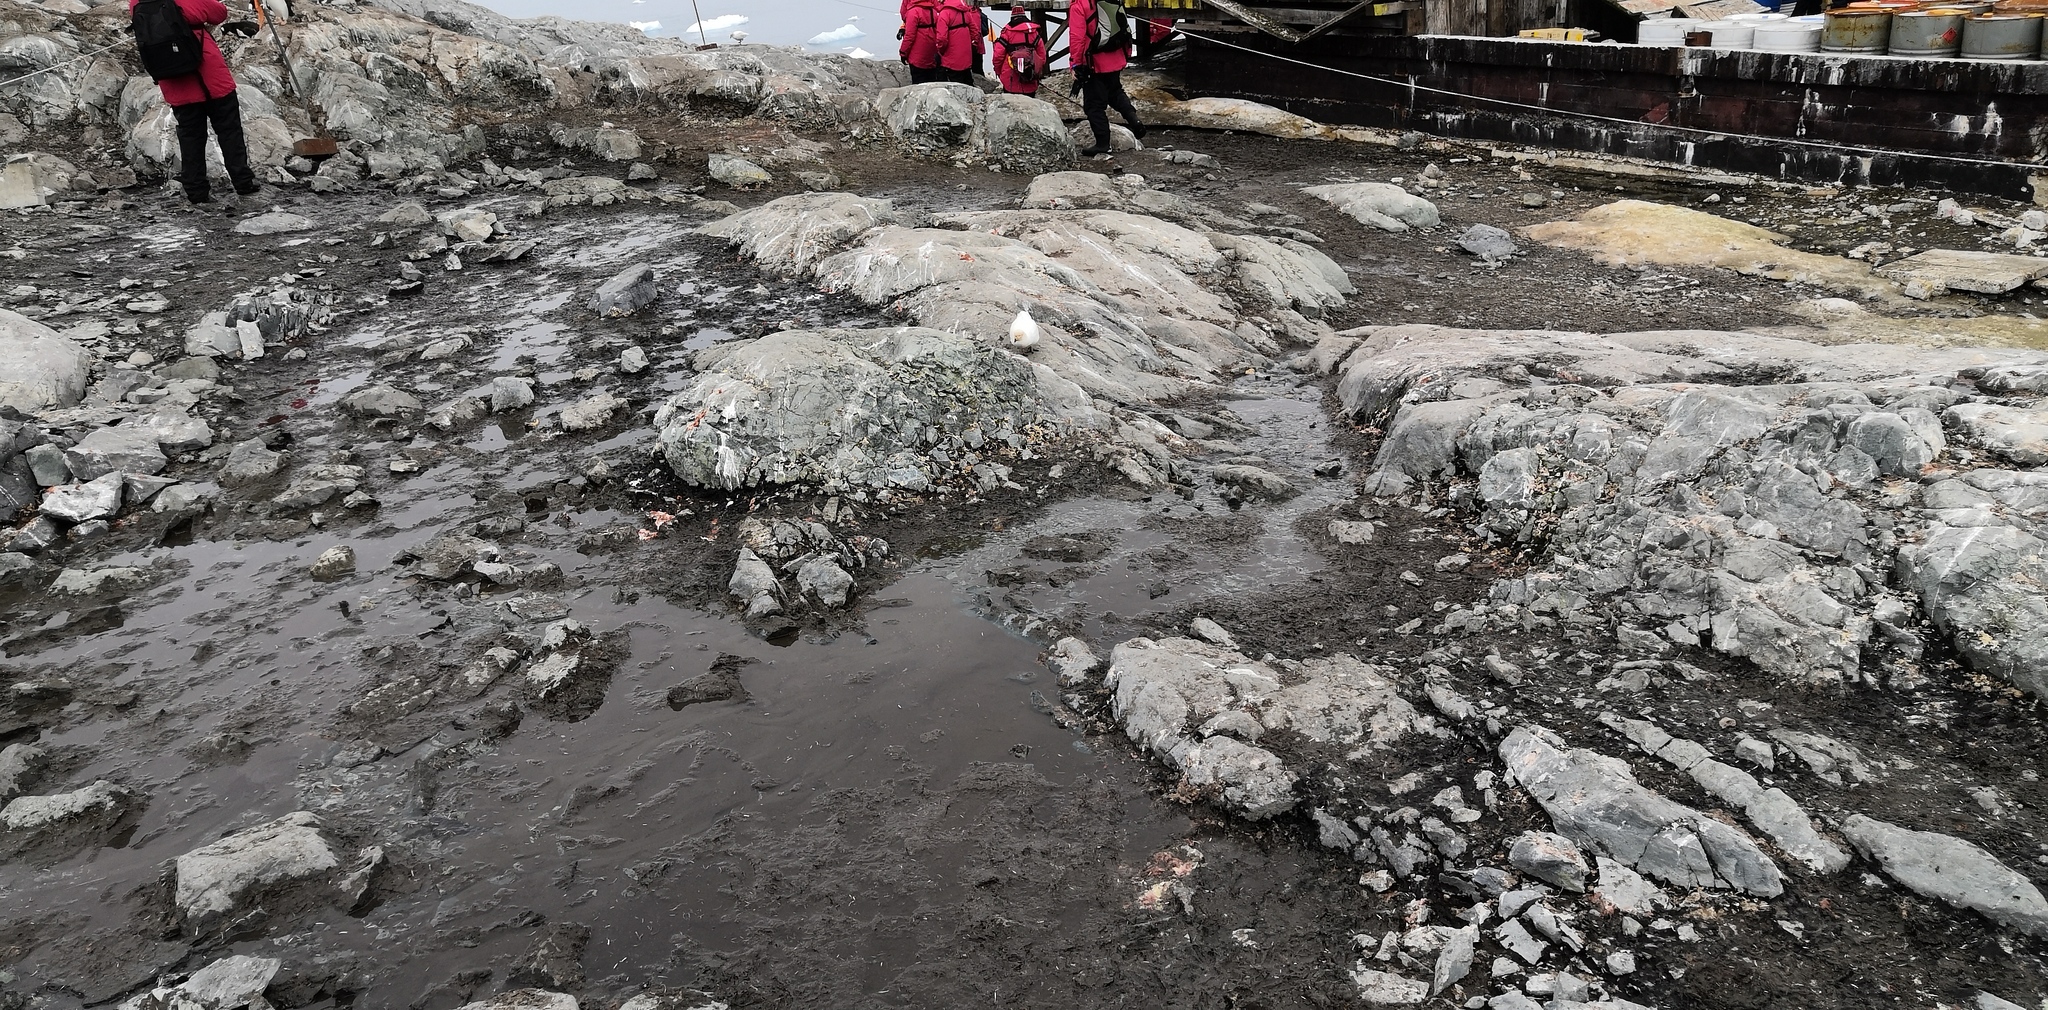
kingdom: Animalia
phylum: Chordata
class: Aves
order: Charadriiformes
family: Chionidae
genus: Chionis
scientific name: Chionis albus
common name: Snowy sheathbill
